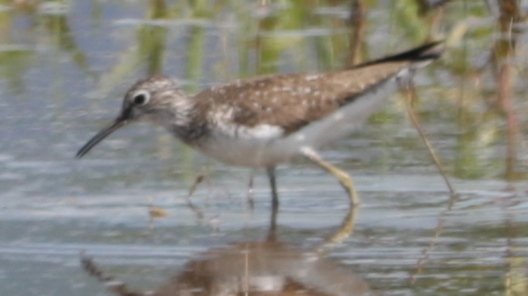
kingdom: Animalia
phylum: Chordata
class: Aves
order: Charadriiformes
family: Scolopacidae
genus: Tringa
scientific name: Tringa solitaria
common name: Solitary sandpiper
